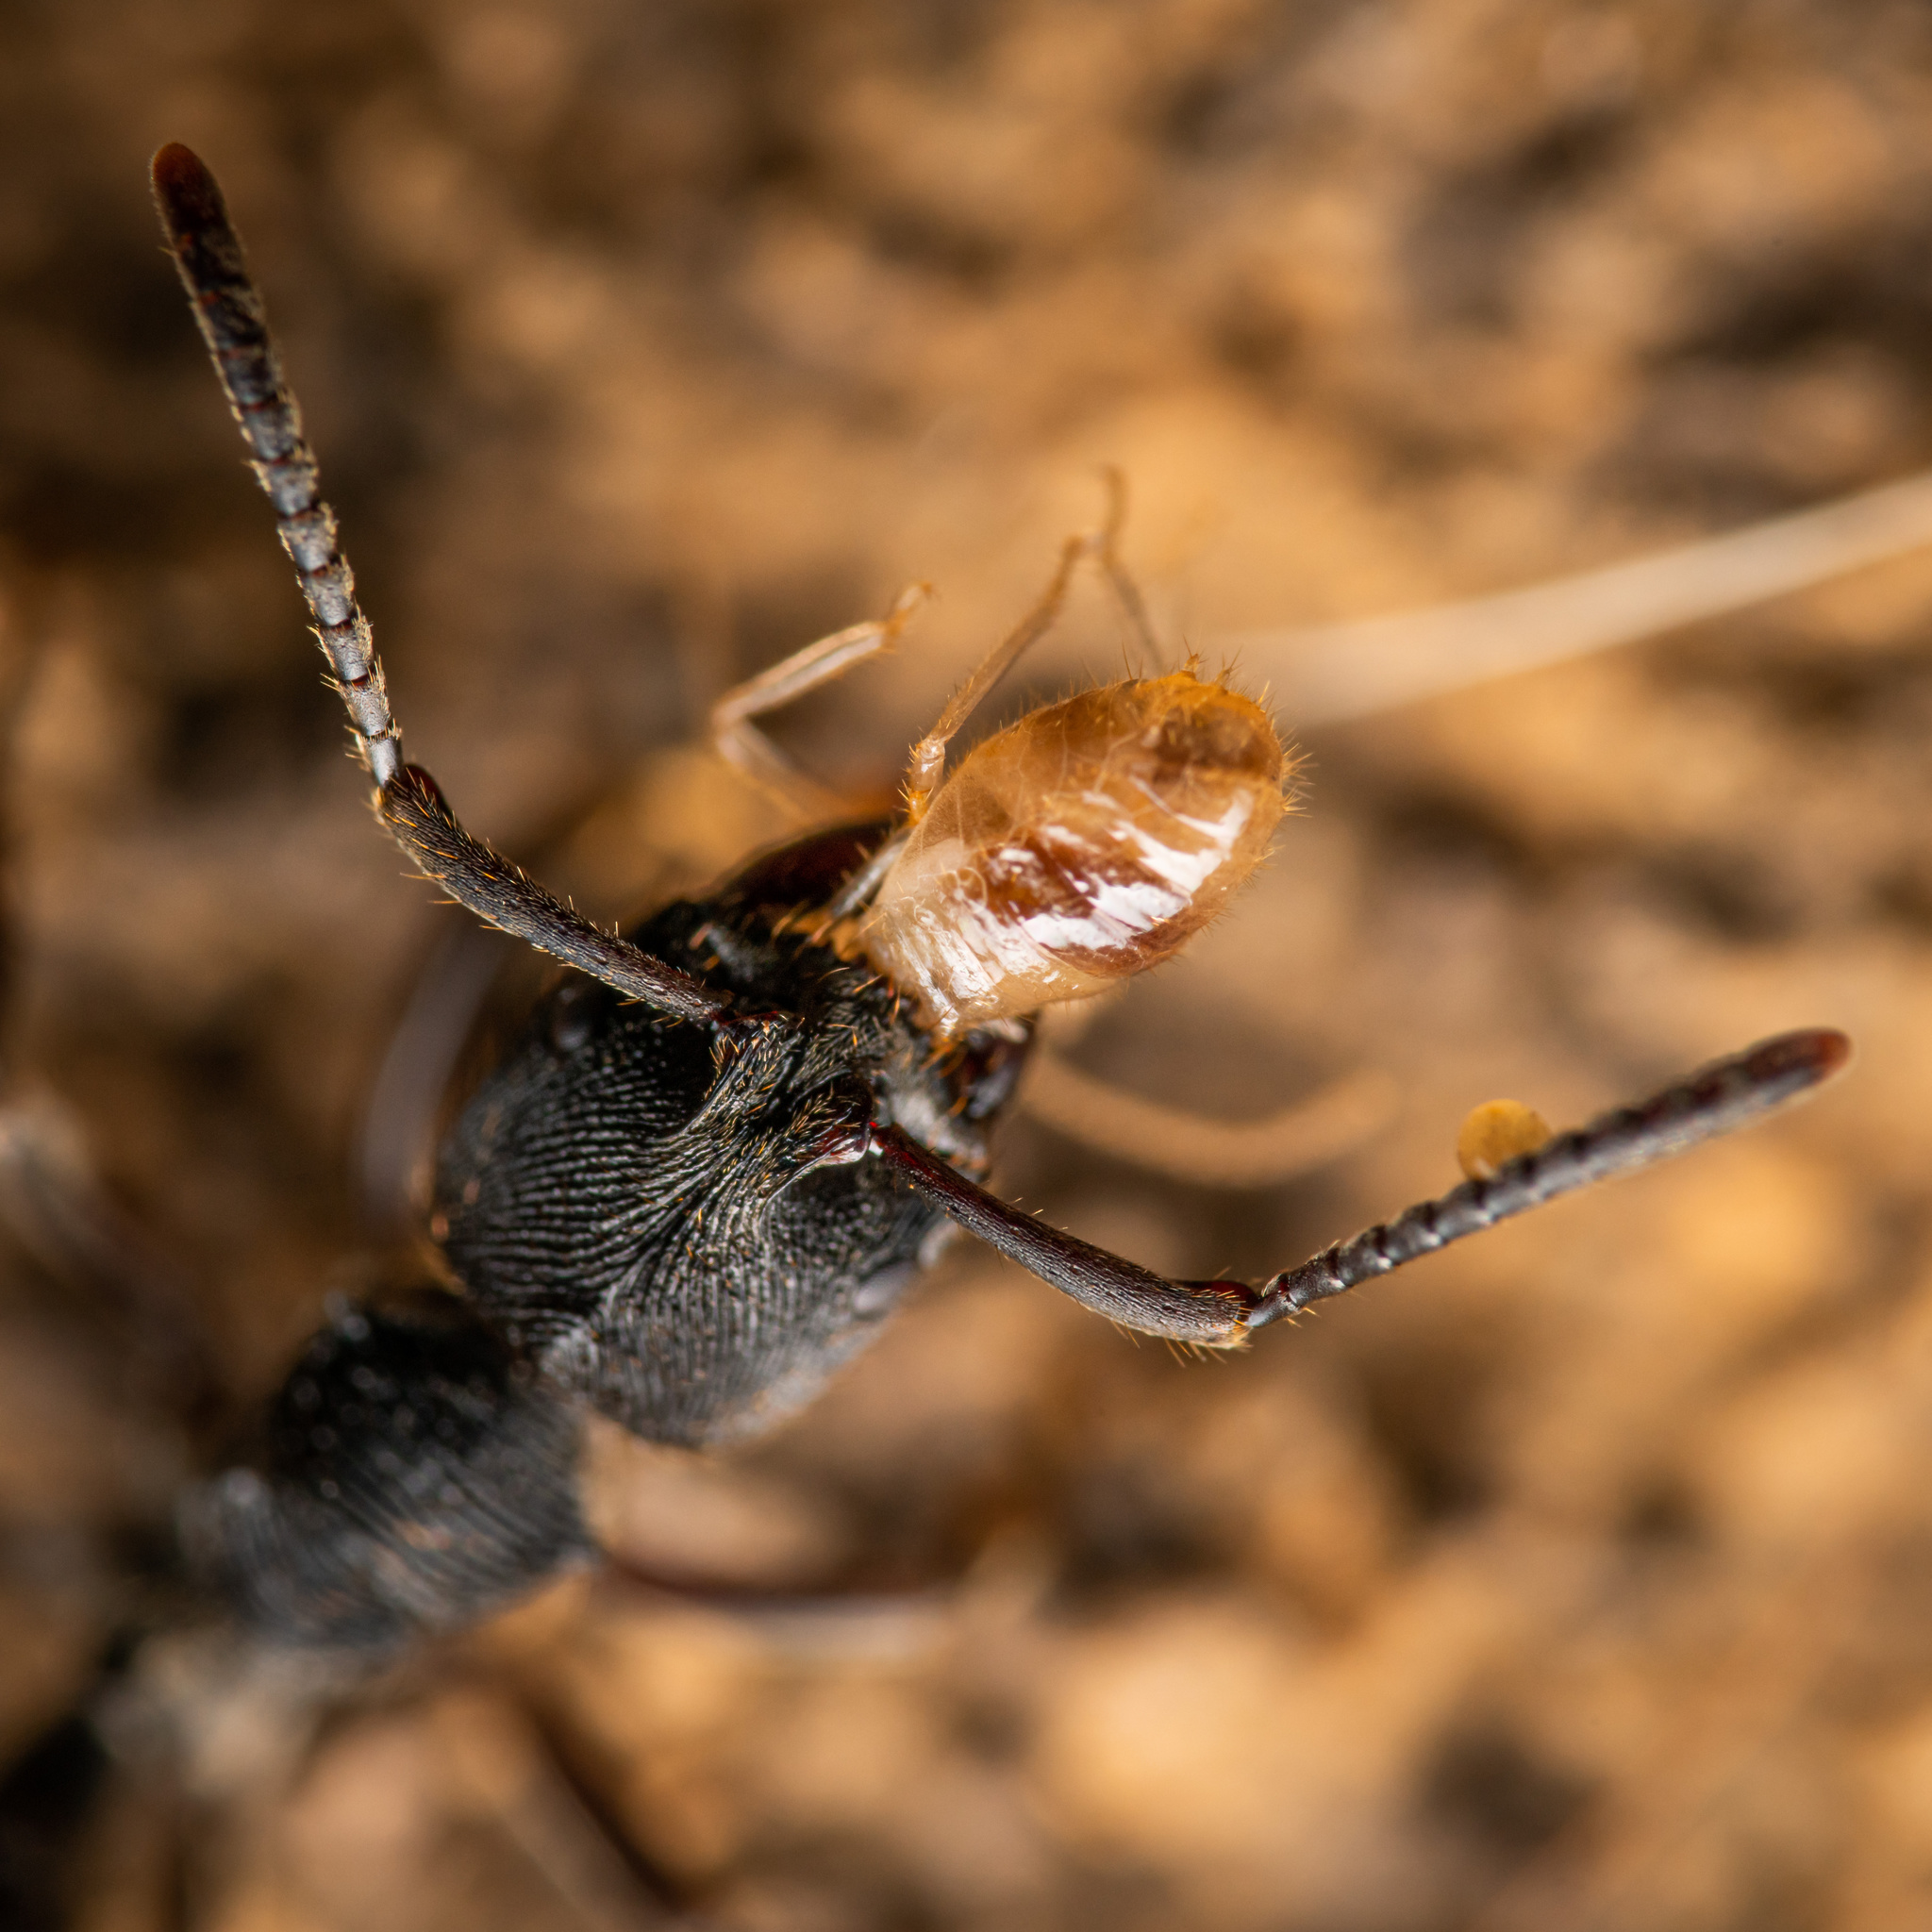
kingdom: Animalia
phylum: Arthropoda
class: Insecta
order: Hymenoptera
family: Formicidae
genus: Odontoponera
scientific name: Odontoponera denticulata
